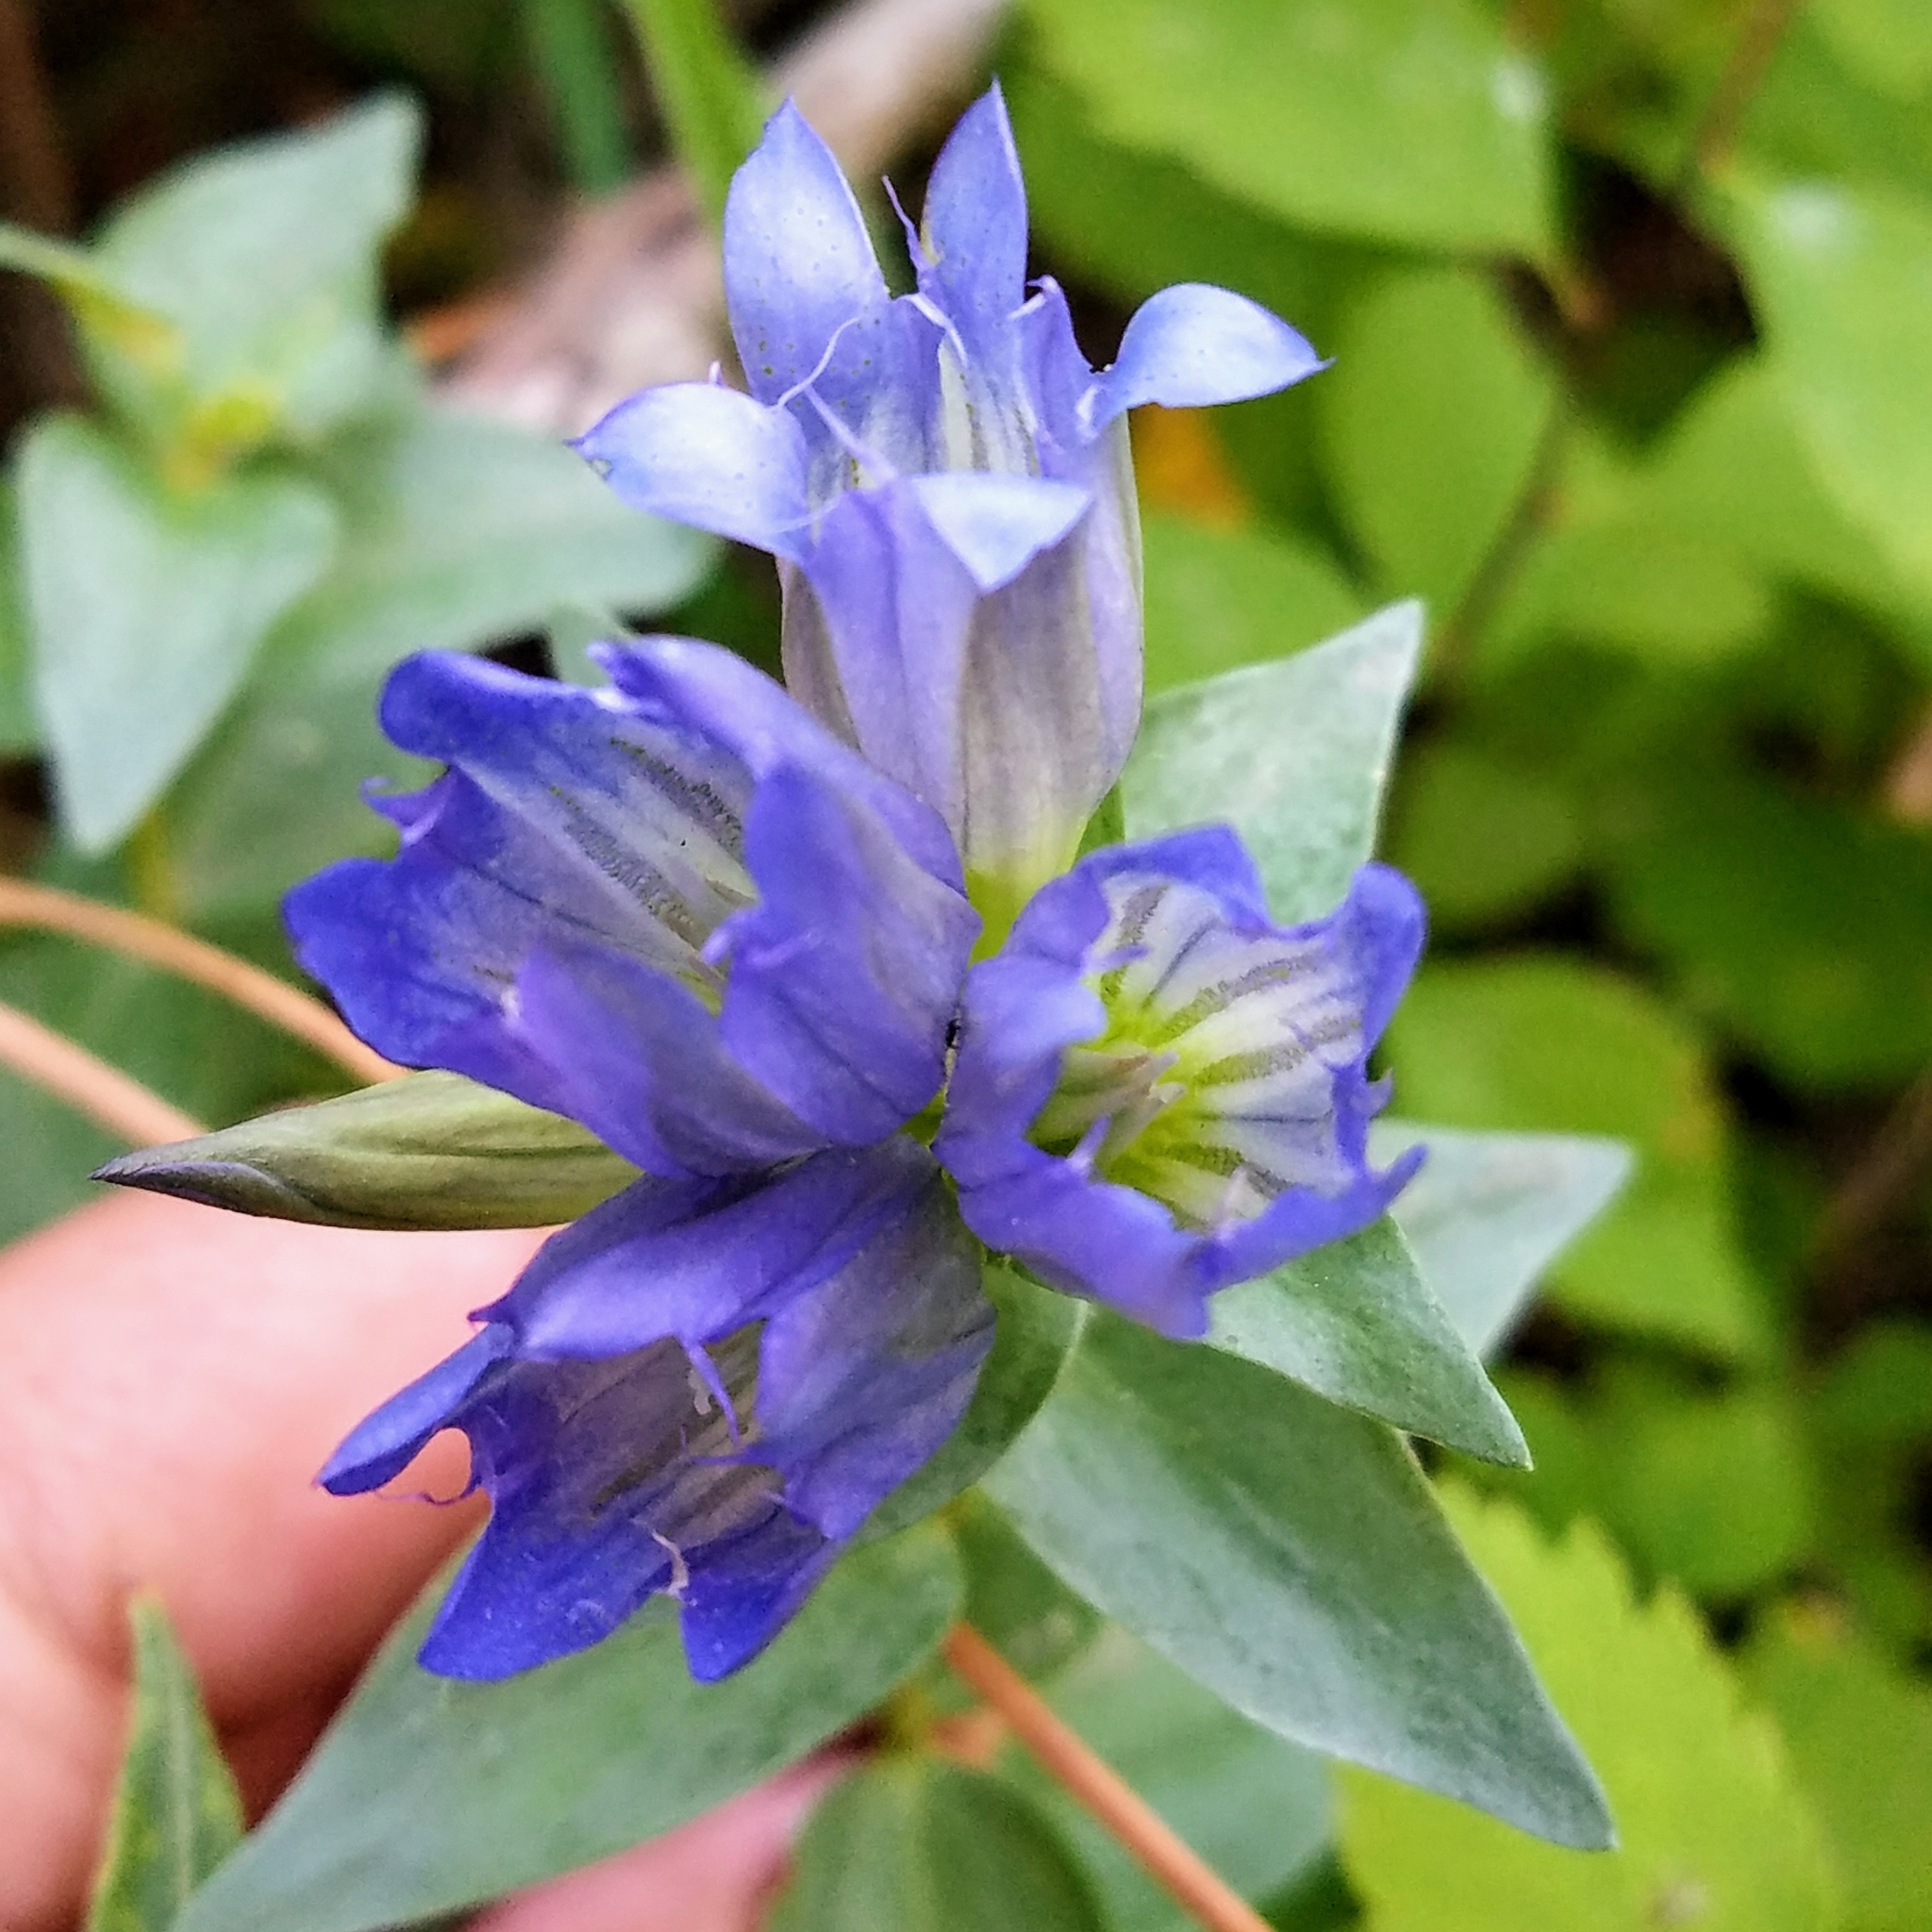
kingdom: Plantae
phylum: Tracheophyta
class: Magnoliopsida
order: Gentianales
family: Gentianaceae
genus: Gentiana
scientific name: Gentiana affinis
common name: Rocky mountain gentian
